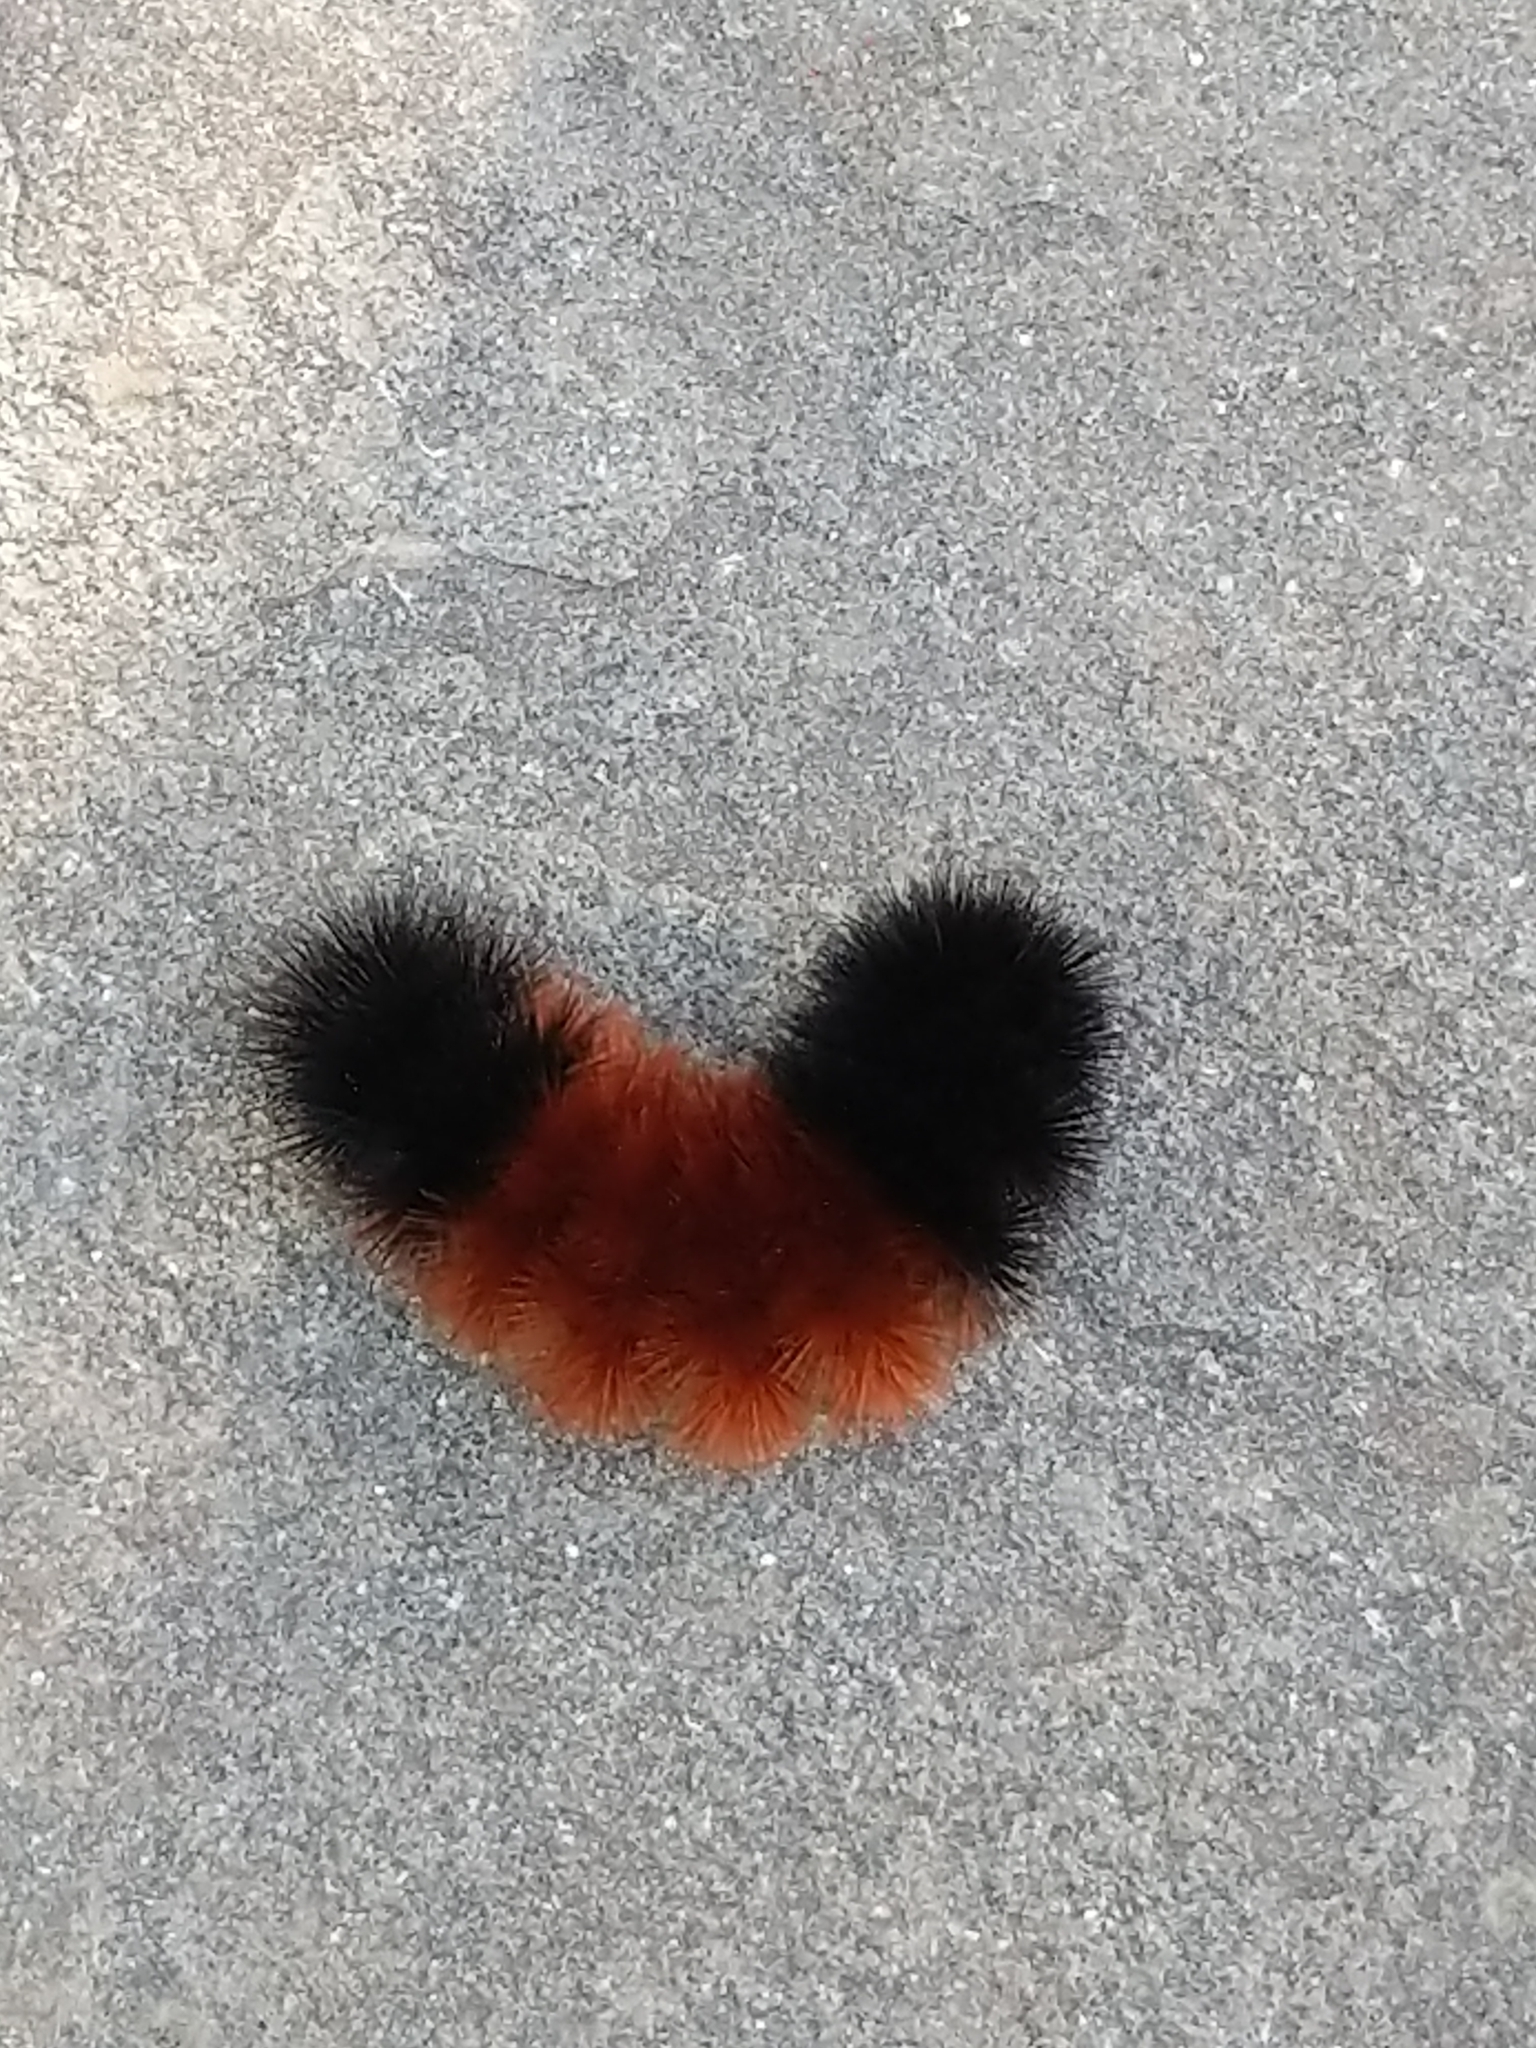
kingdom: Animalia
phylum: Arthropoda
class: Insecta
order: Lepidoptera
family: Erebidae
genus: Pyrrharctia
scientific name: Pyrrharctia isabella
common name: Isabella tiger moth
